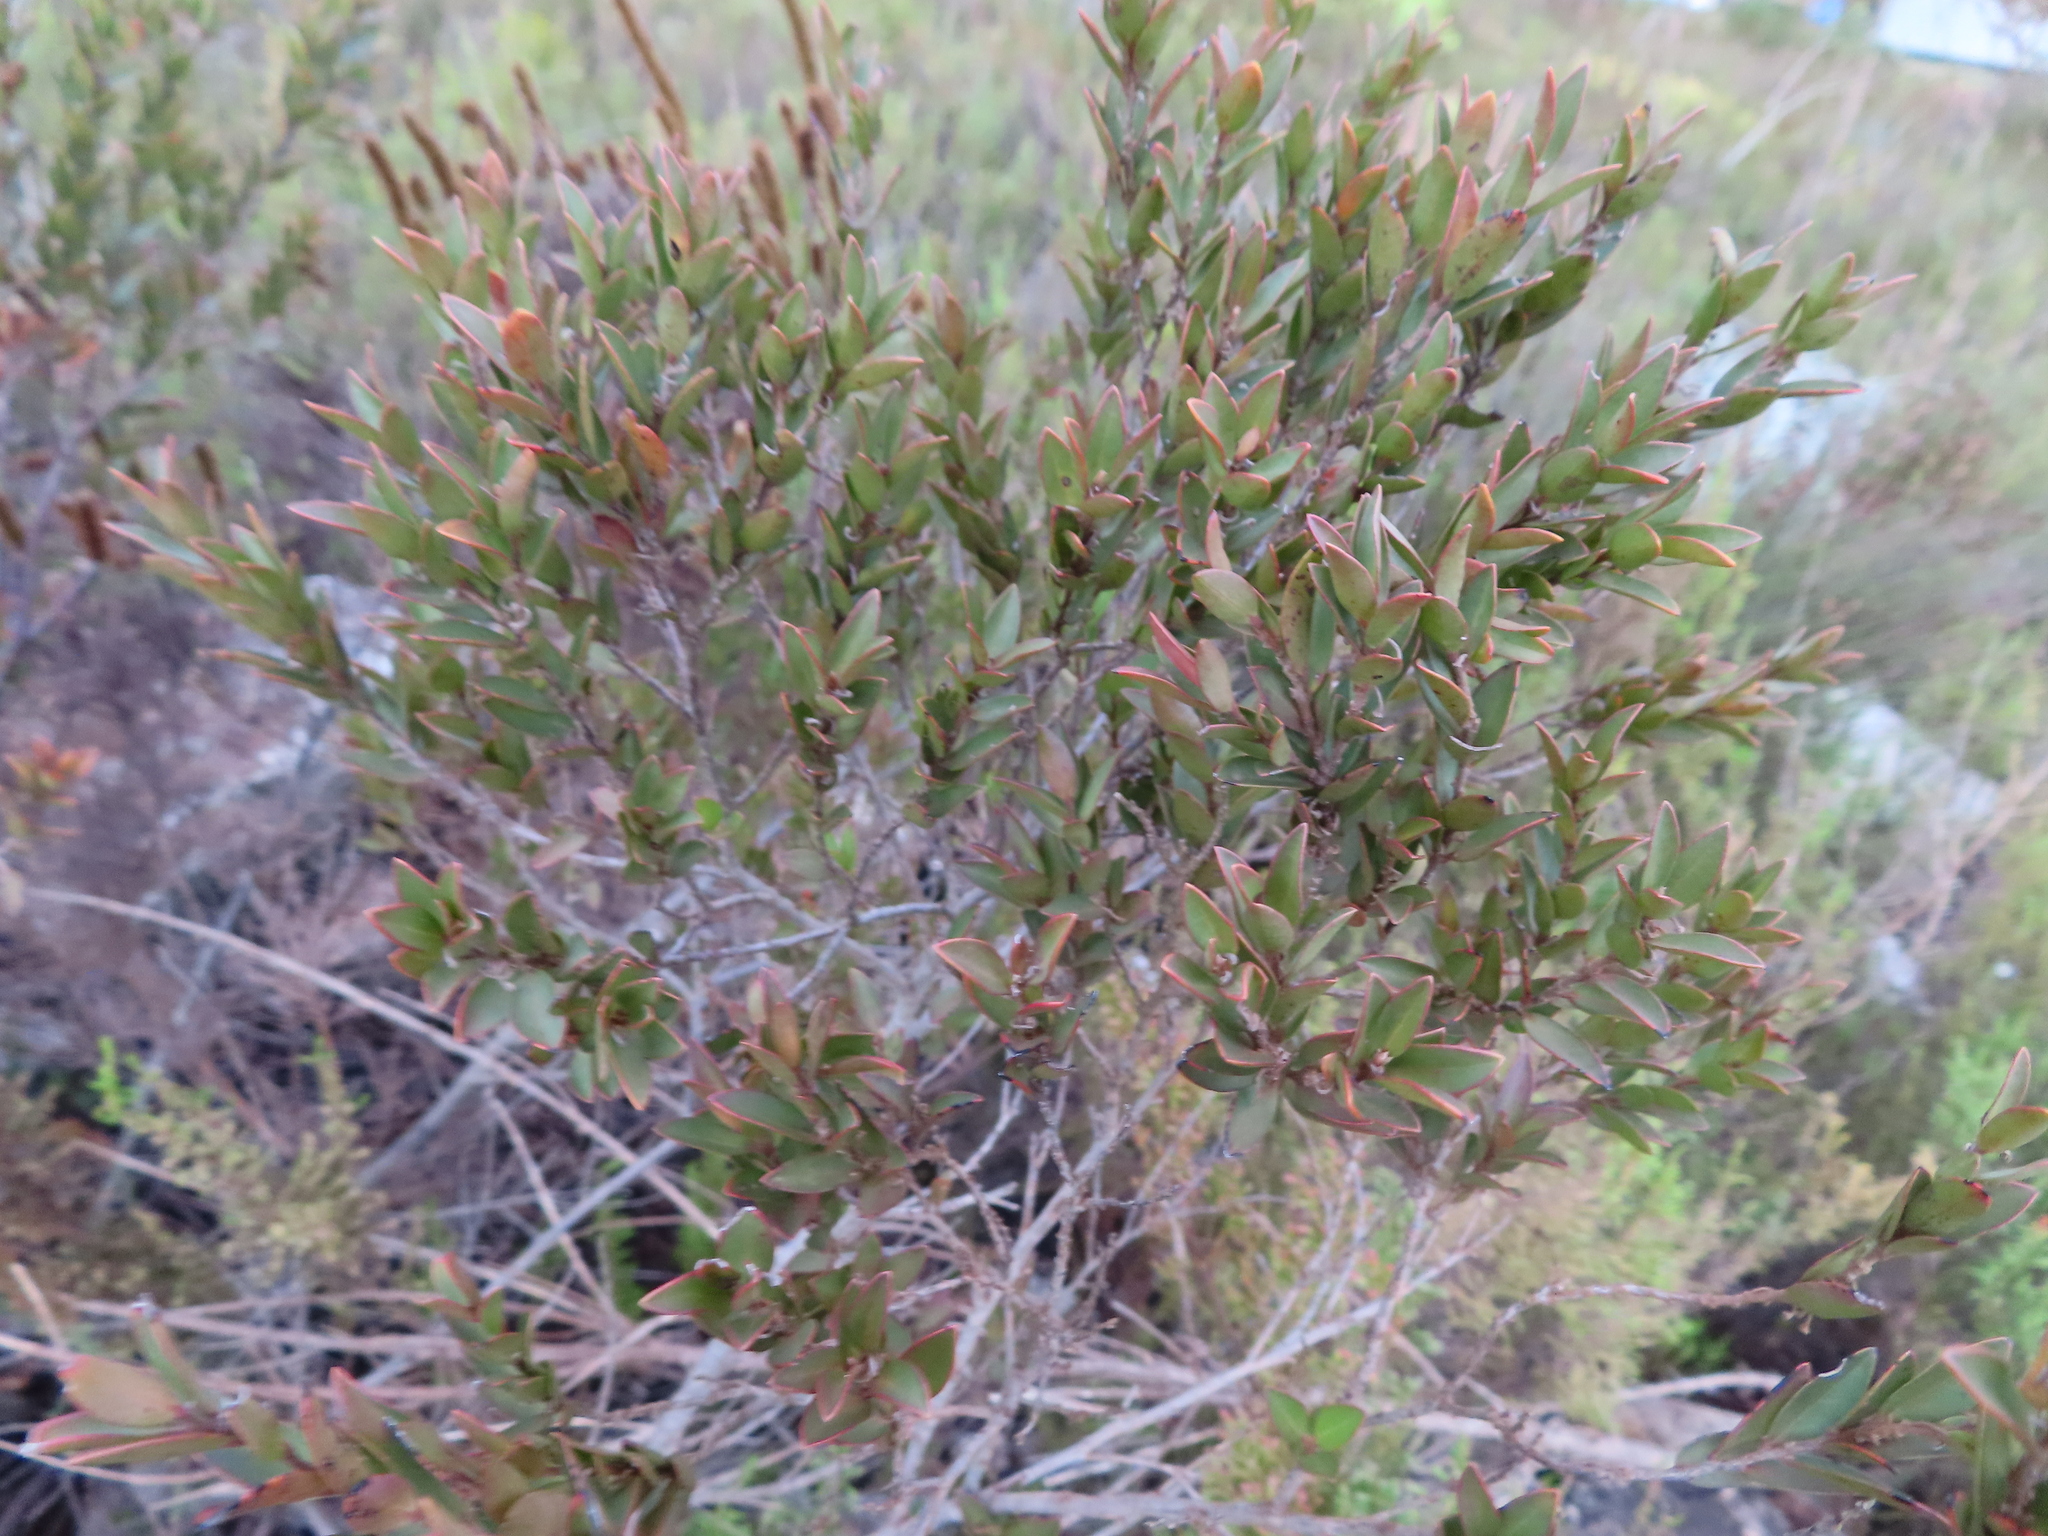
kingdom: Plantae
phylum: Tracheophyta
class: Magnoliopsida
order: Ericales
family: Ebenaceae
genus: Diospyros
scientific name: Diospyros glabra
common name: Fynbos star apple
